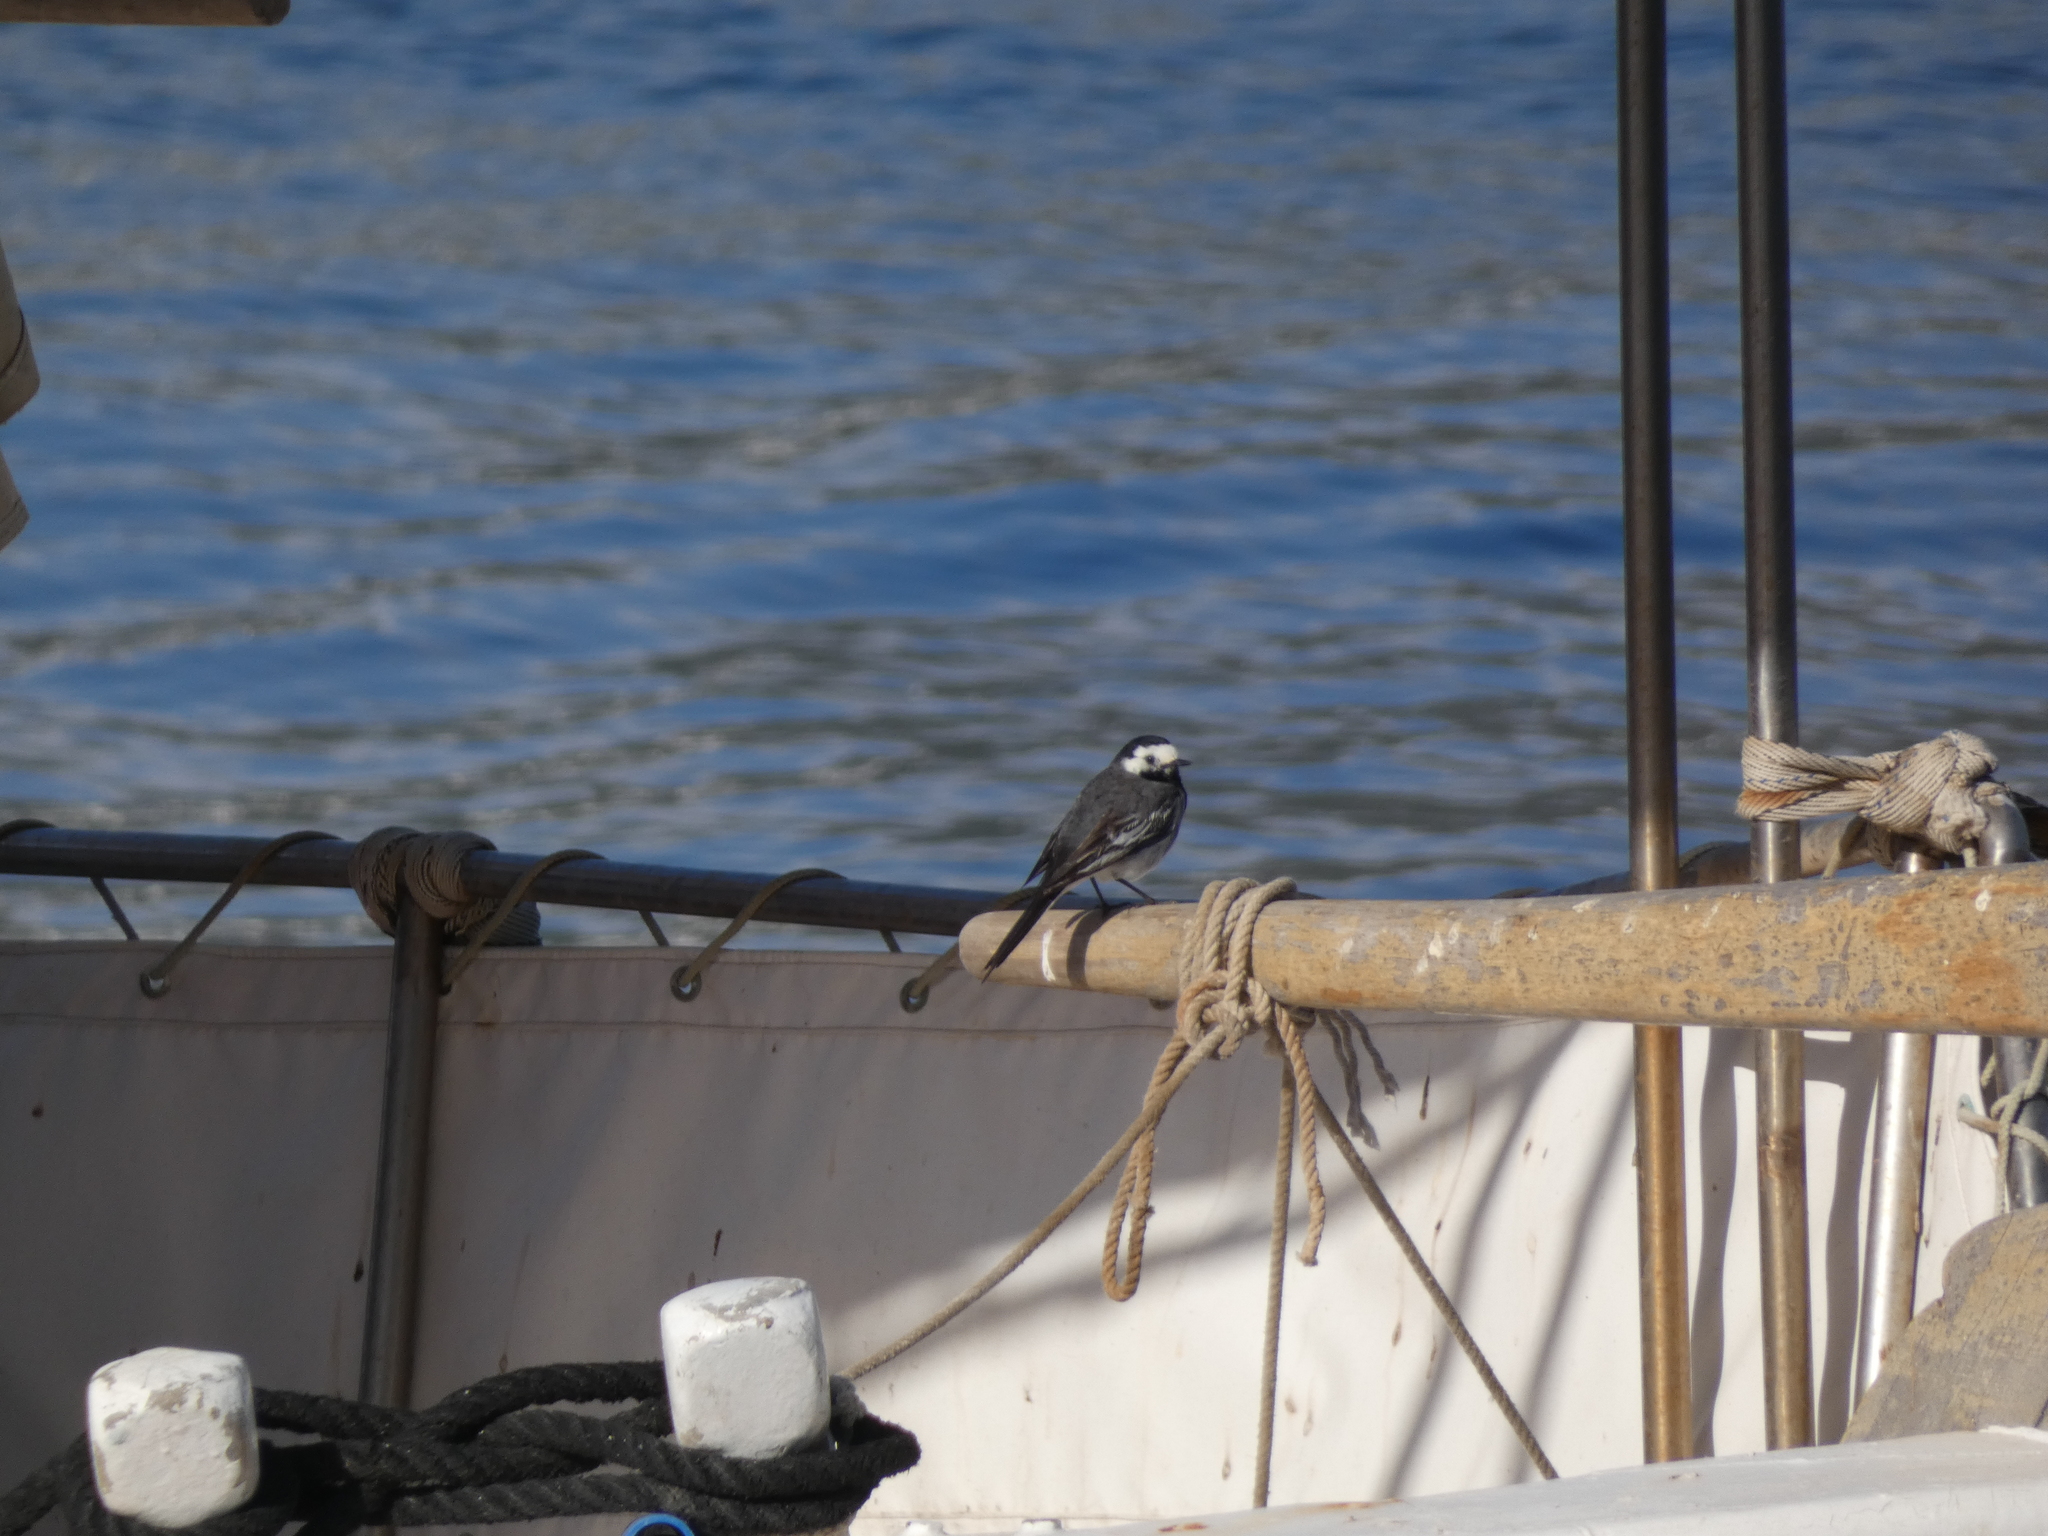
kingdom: Animalia
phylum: Chordata
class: Aves
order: Passeriformes
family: Motacillidae
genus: Motacilla
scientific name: Motacilla alba
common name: White wagtail
